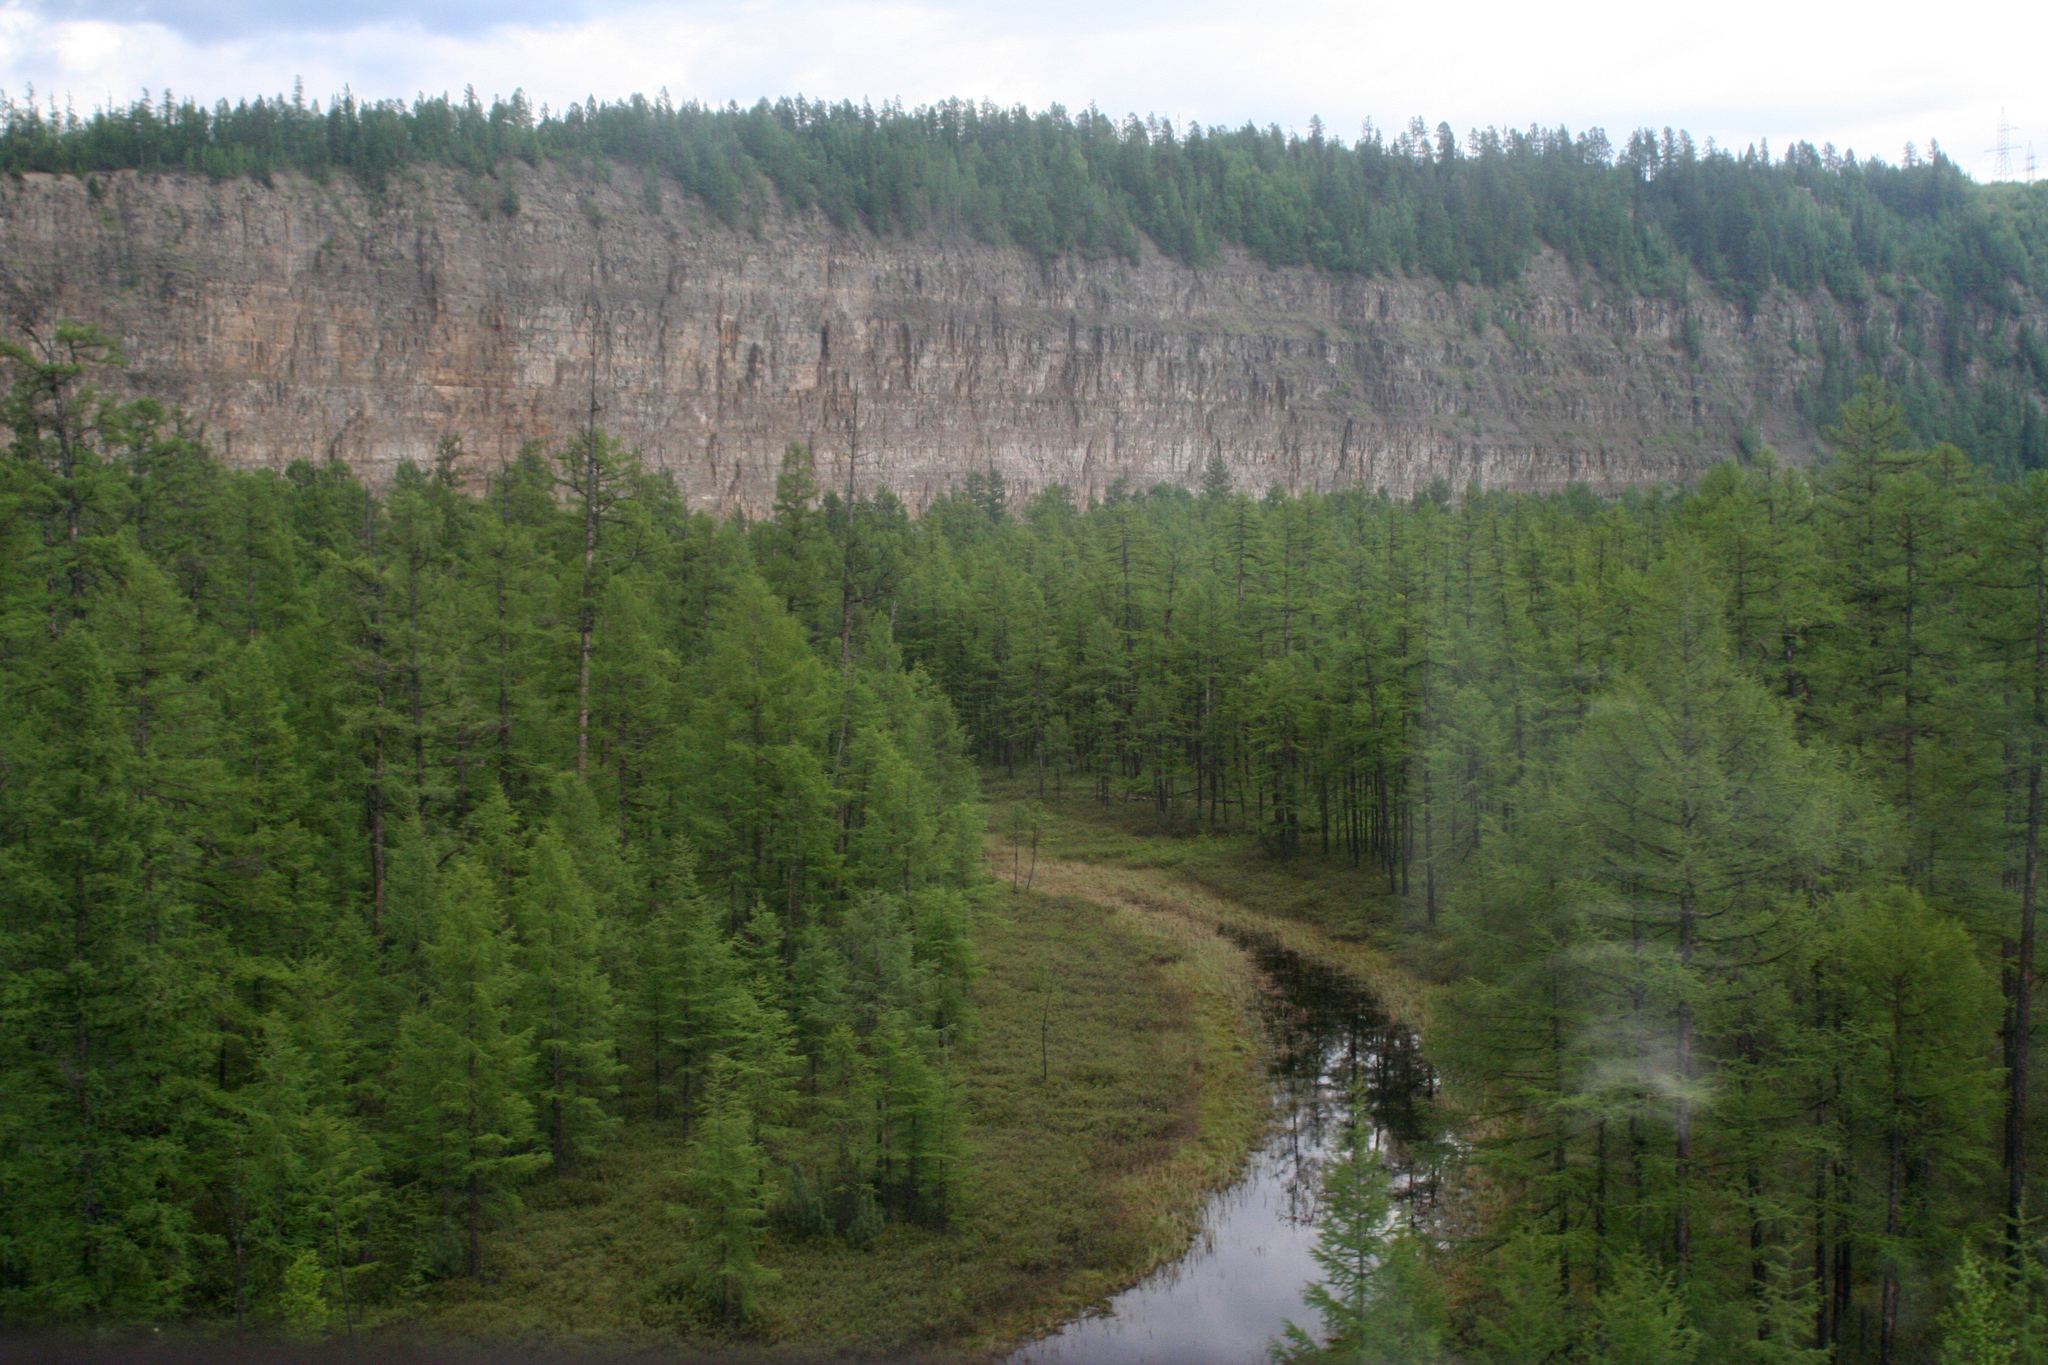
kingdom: Plantae
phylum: Tracheophyta
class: Pinopsida
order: Pinales
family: Pinaceae
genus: Larix
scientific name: Larix gmelinii
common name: Dahurian larch
